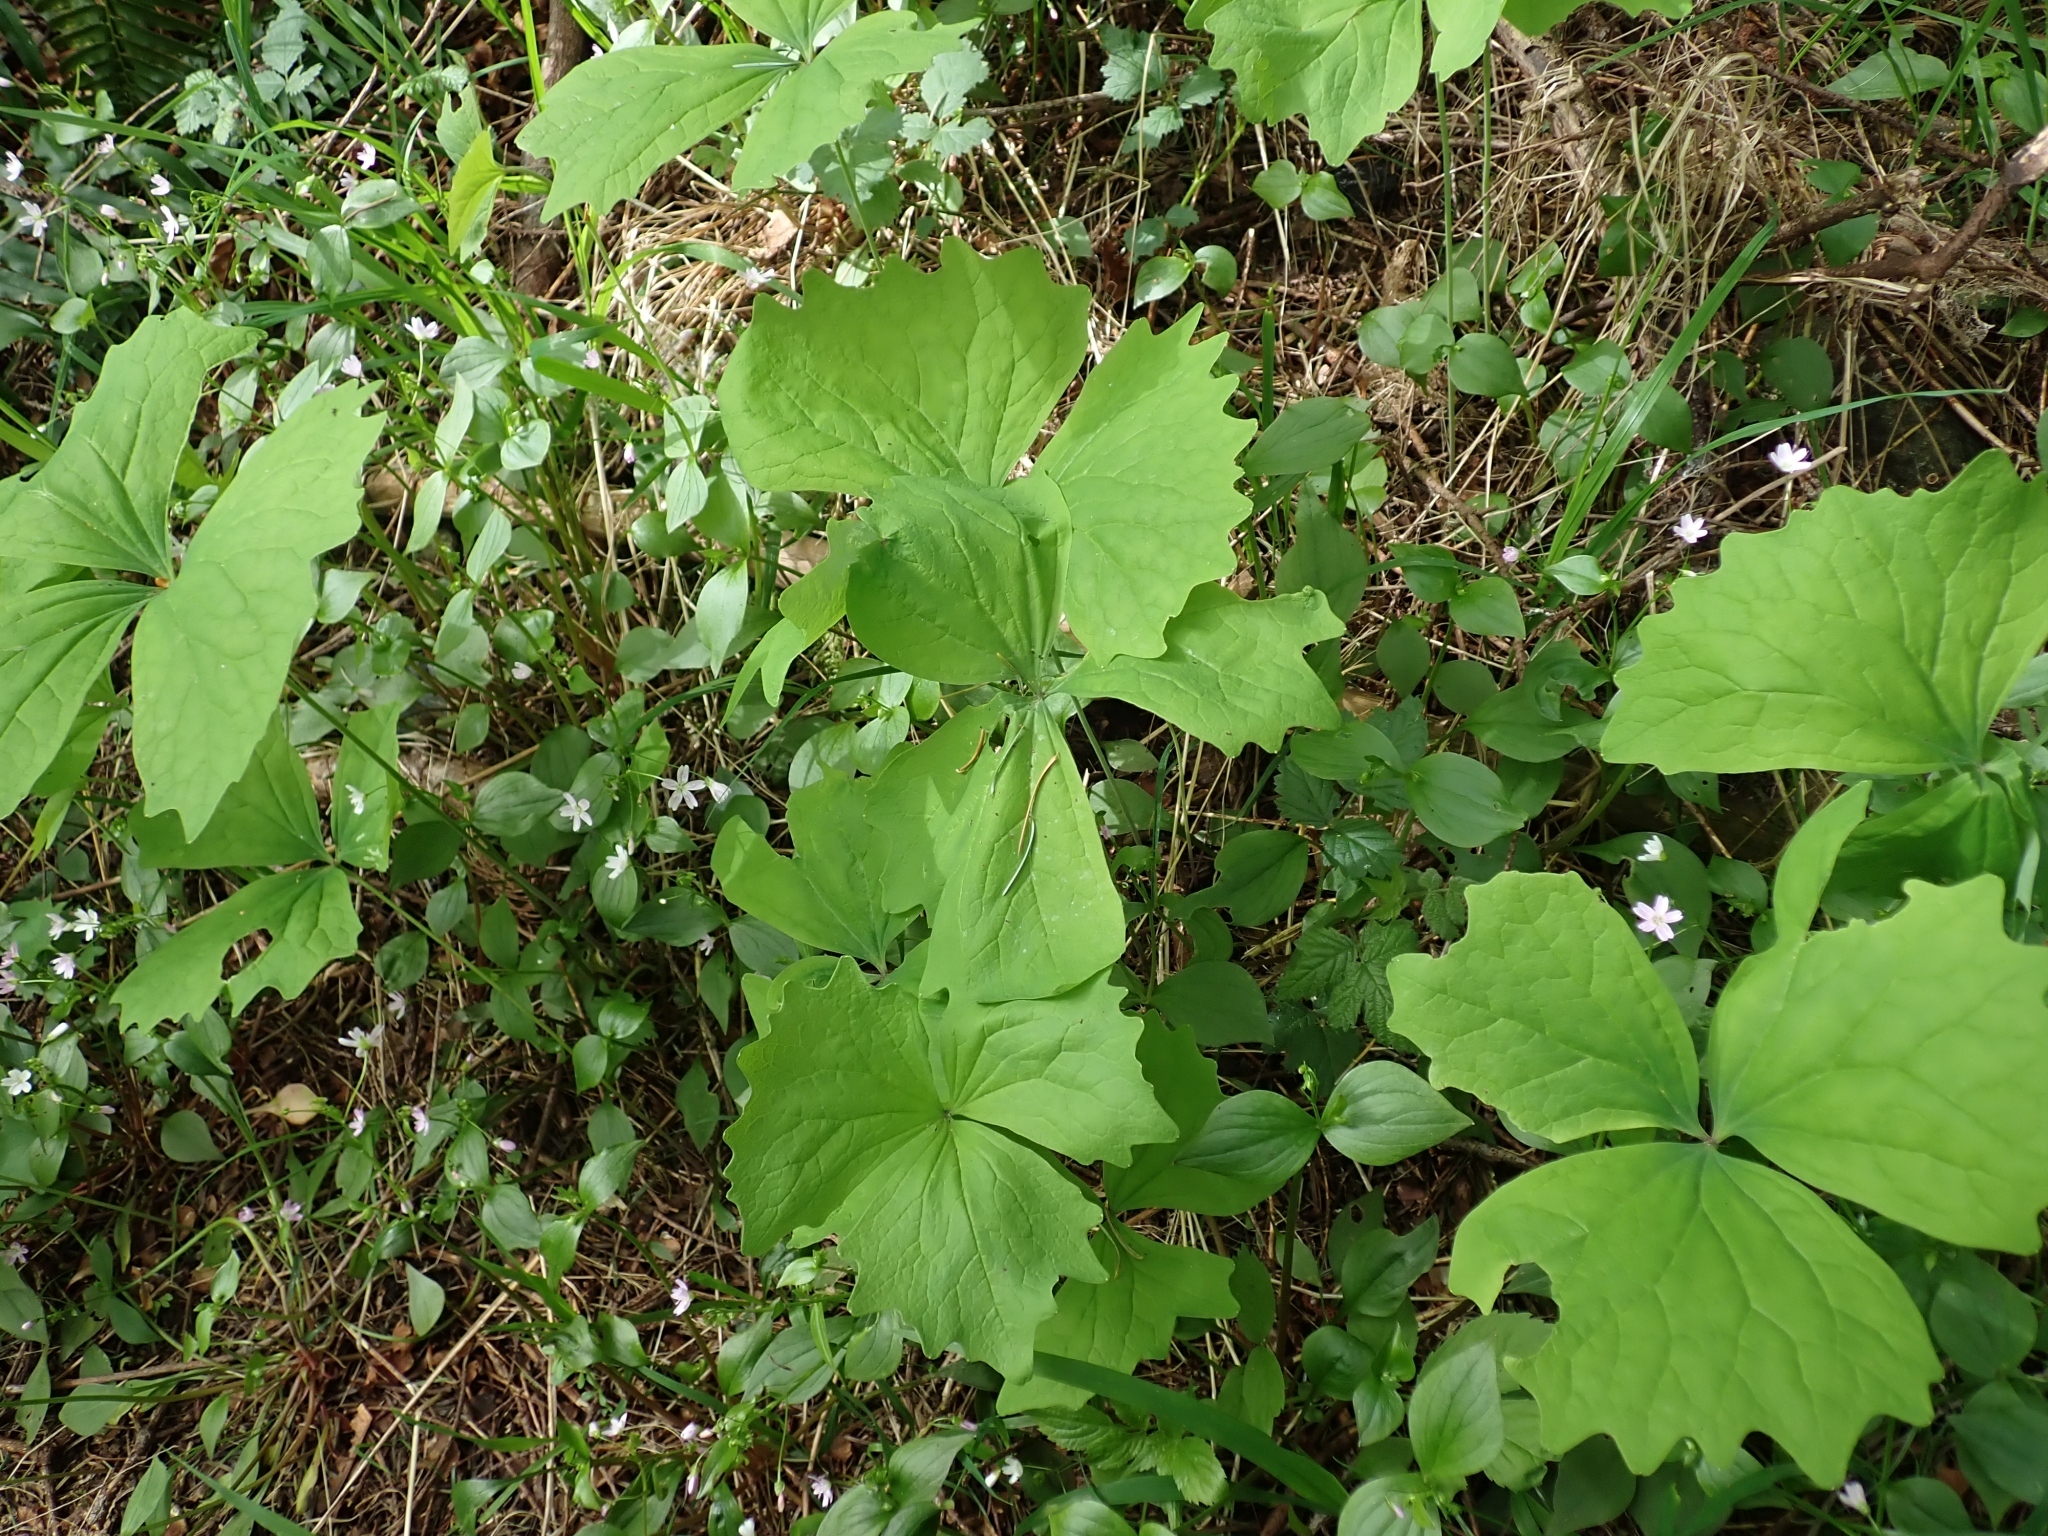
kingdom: Plantae
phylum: Tracheophyta
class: Magnoliopsida
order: Ranunculales
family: Berberidaceae
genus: Achlys
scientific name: Achlys triphylla
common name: Vanilla-leaf
